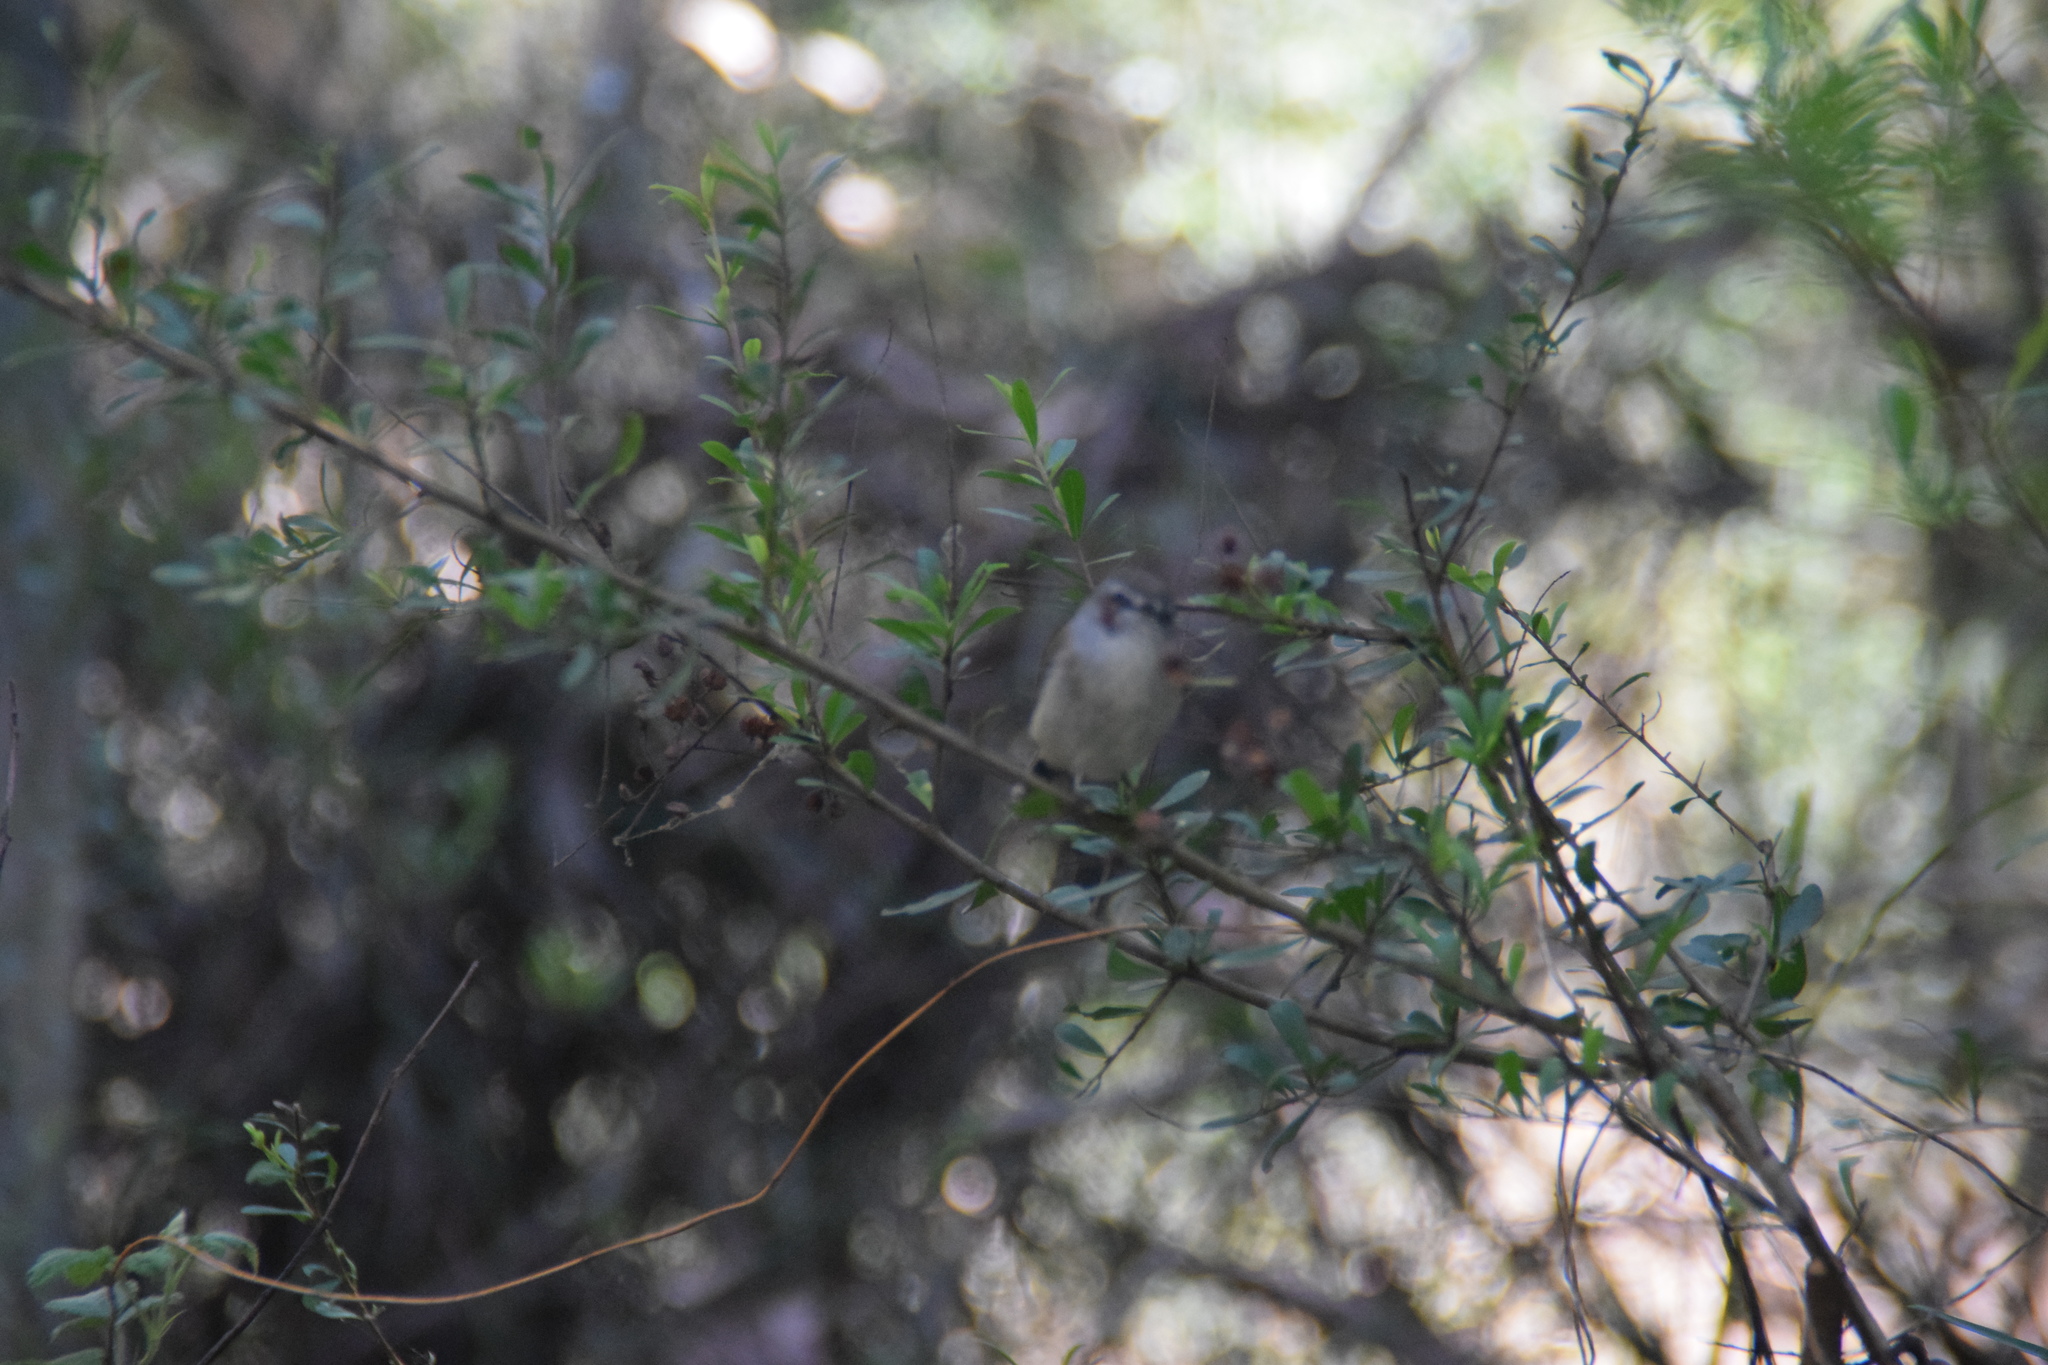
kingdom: Animalia
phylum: Chordata
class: Aves
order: Passeriformes
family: Acanthizidae
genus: Gerygone
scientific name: Gerygone mouki
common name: Brown gerygone
